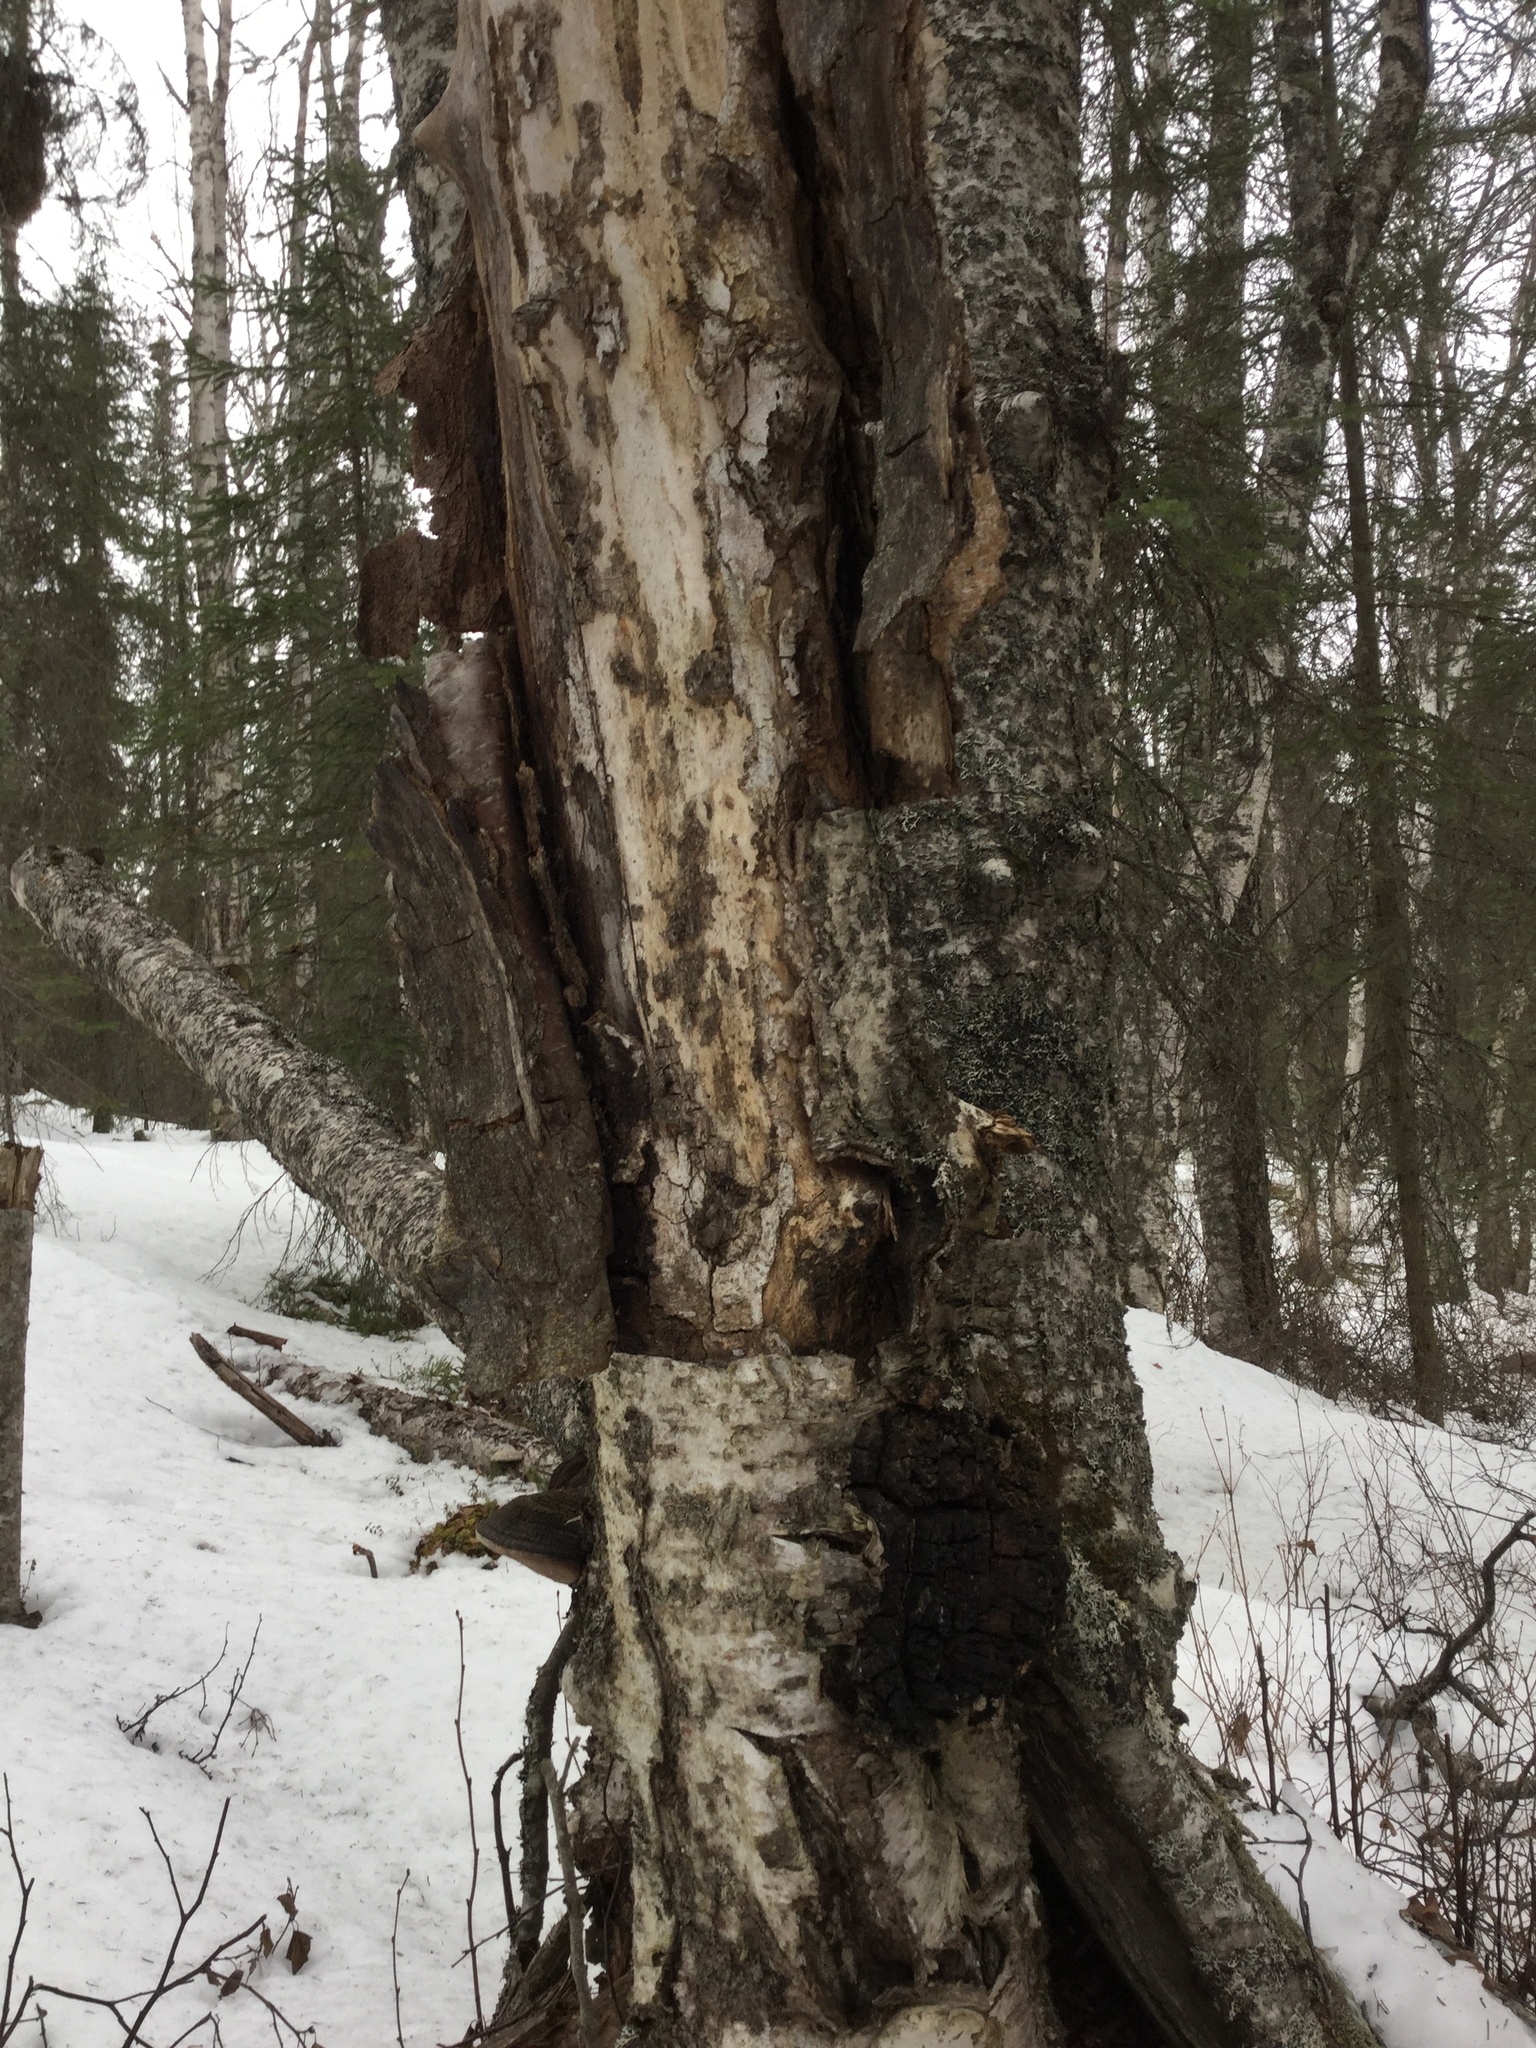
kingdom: Fungi
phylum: Basidiomycota
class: Agaricomycetes
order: Hymenochaetales
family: Hymenochaetaceae
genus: Inonotus
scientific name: Inonotus obliquus
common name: Chaga
